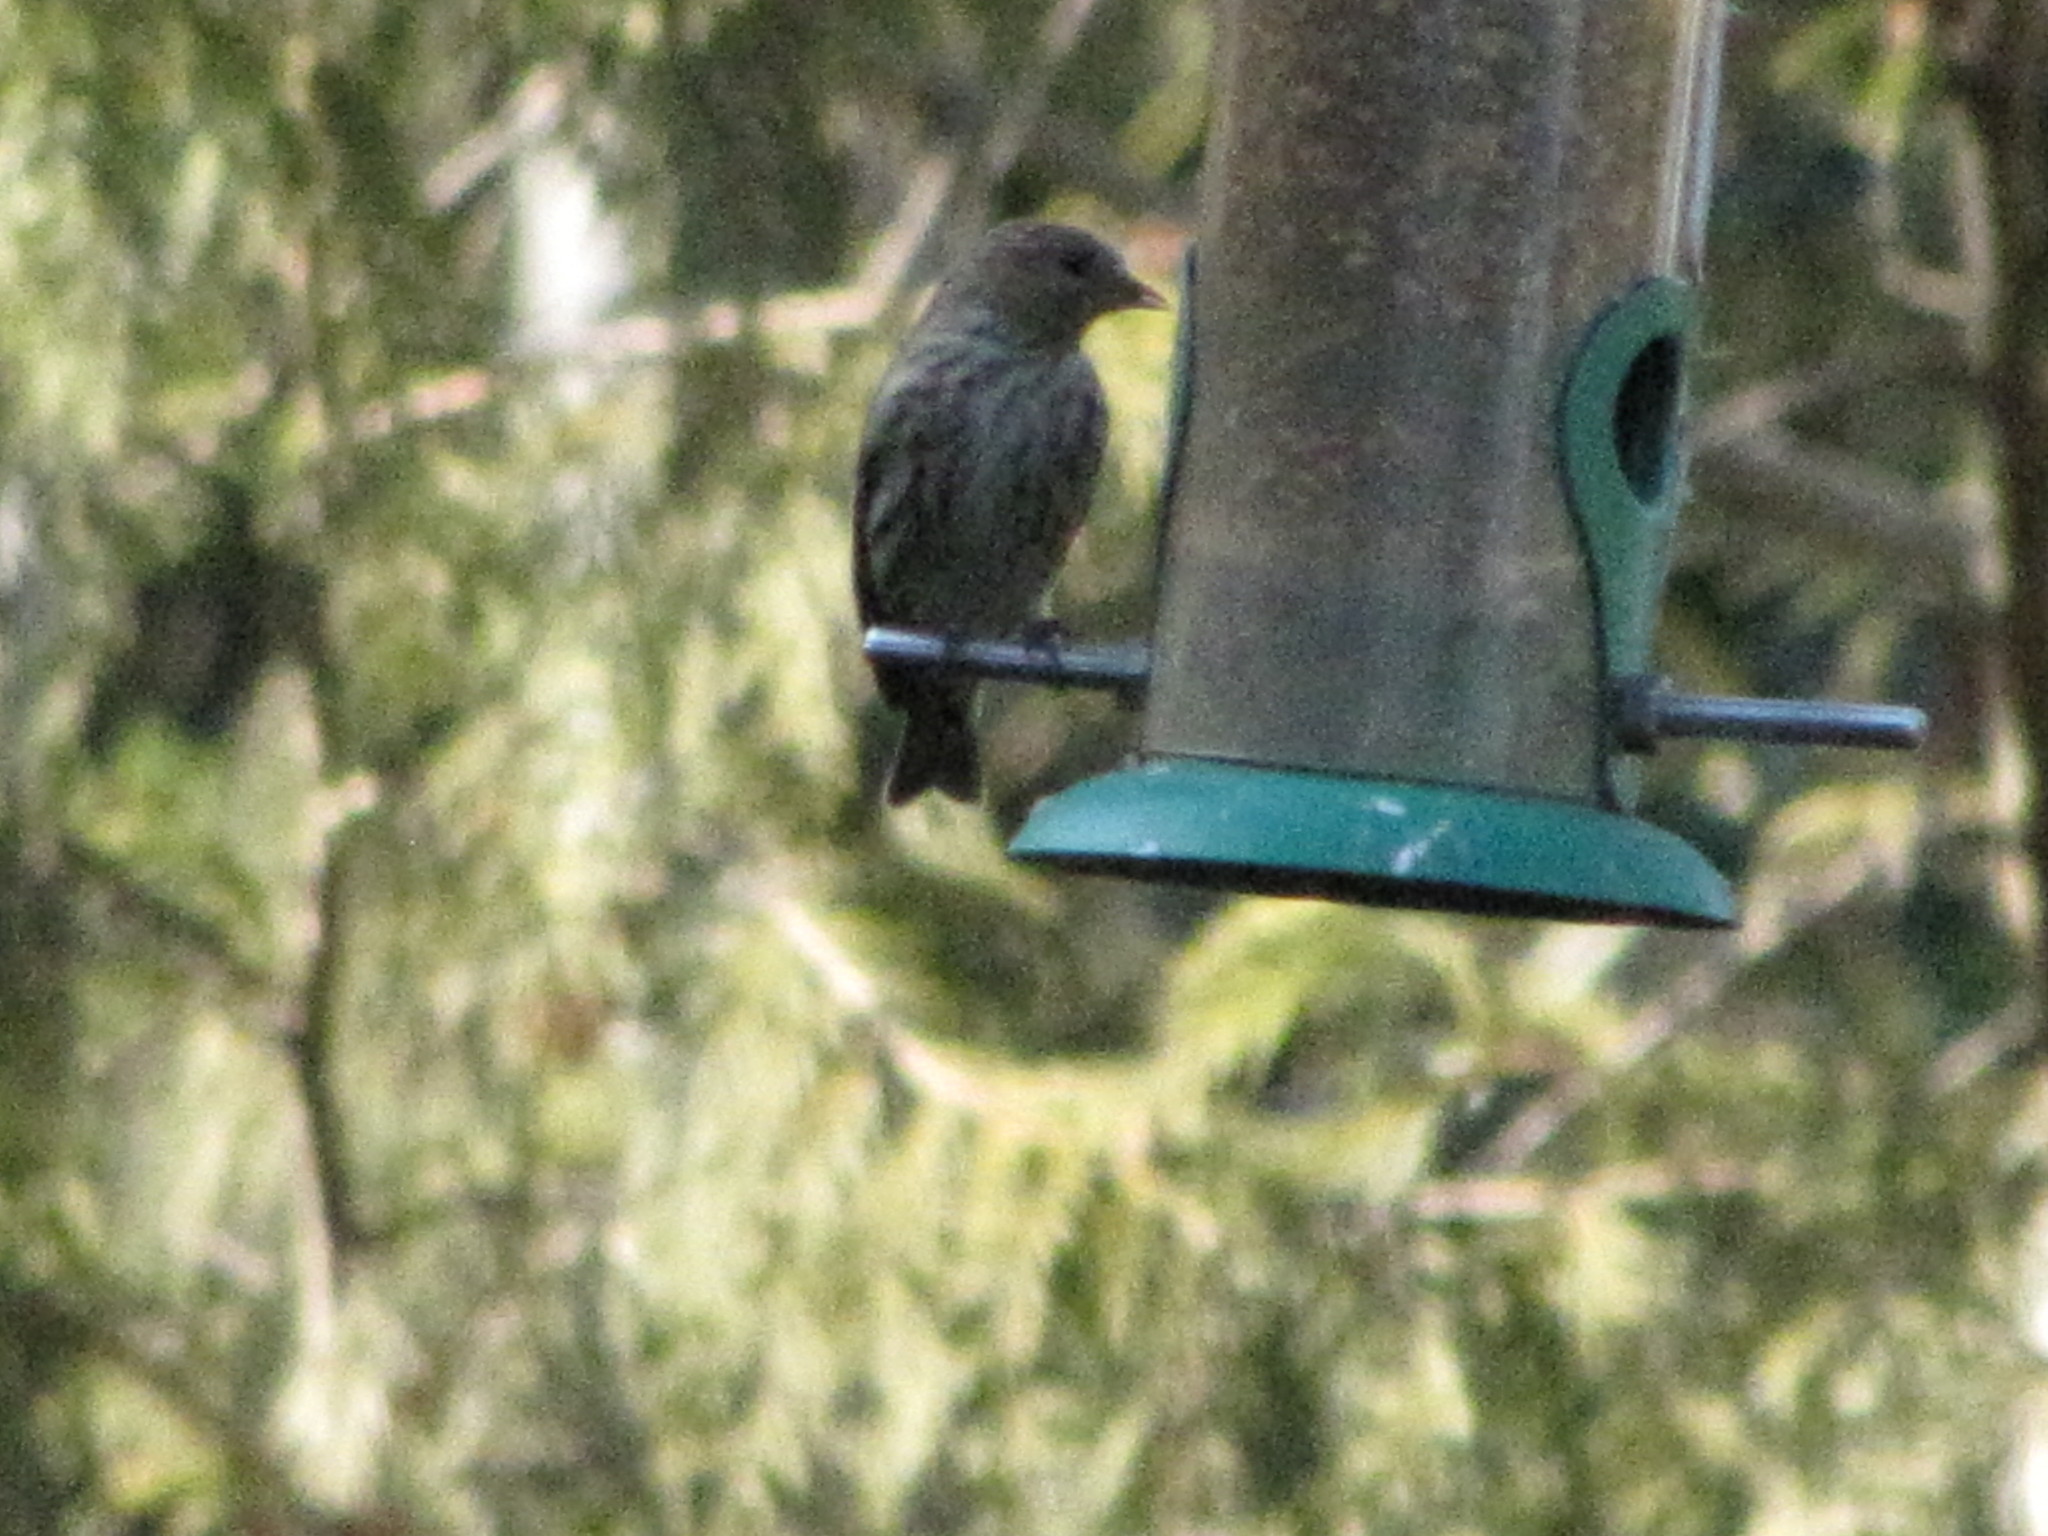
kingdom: Animalia
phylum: Chordata
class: Aves
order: Passeriformes
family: Fringillidae
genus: Spinus
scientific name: Spinus pinus
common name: Pine siskin
